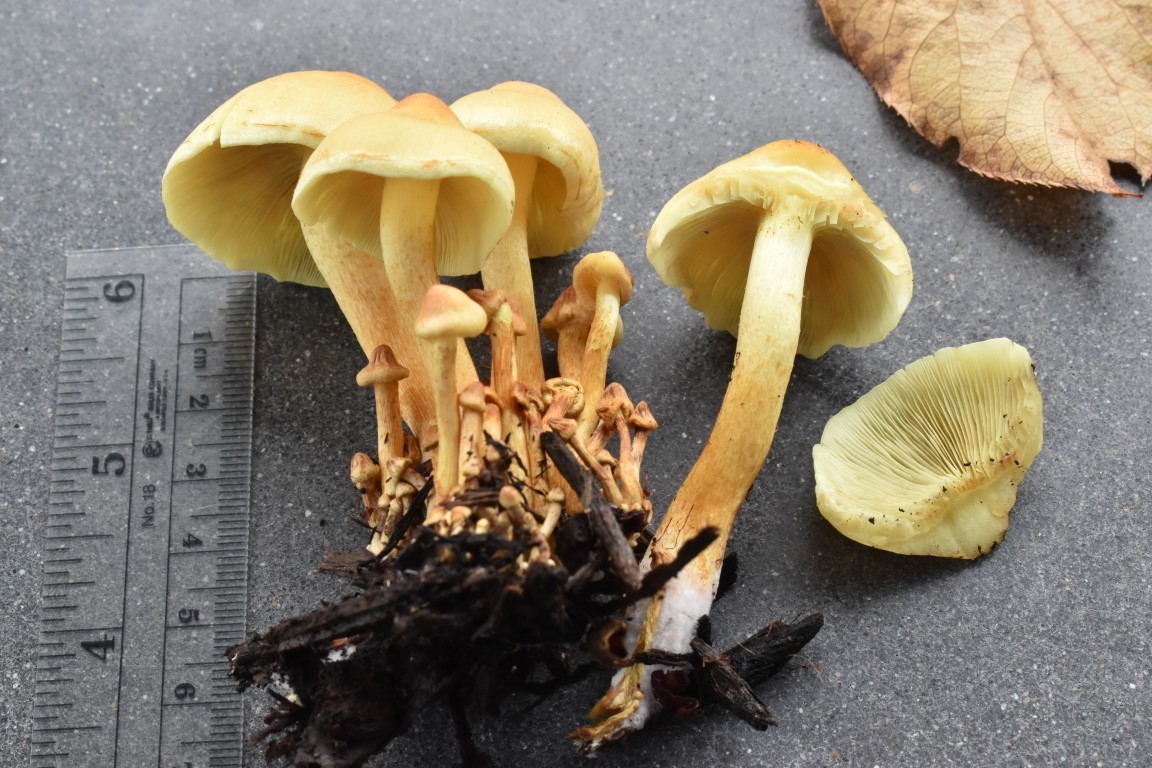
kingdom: Fungi
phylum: Basidiomycota
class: Agaricomycetes
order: Agaricales
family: Strophariaceae
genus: Hypholoma
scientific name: Hypholoma fasciculare
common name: Sulphur tuft
